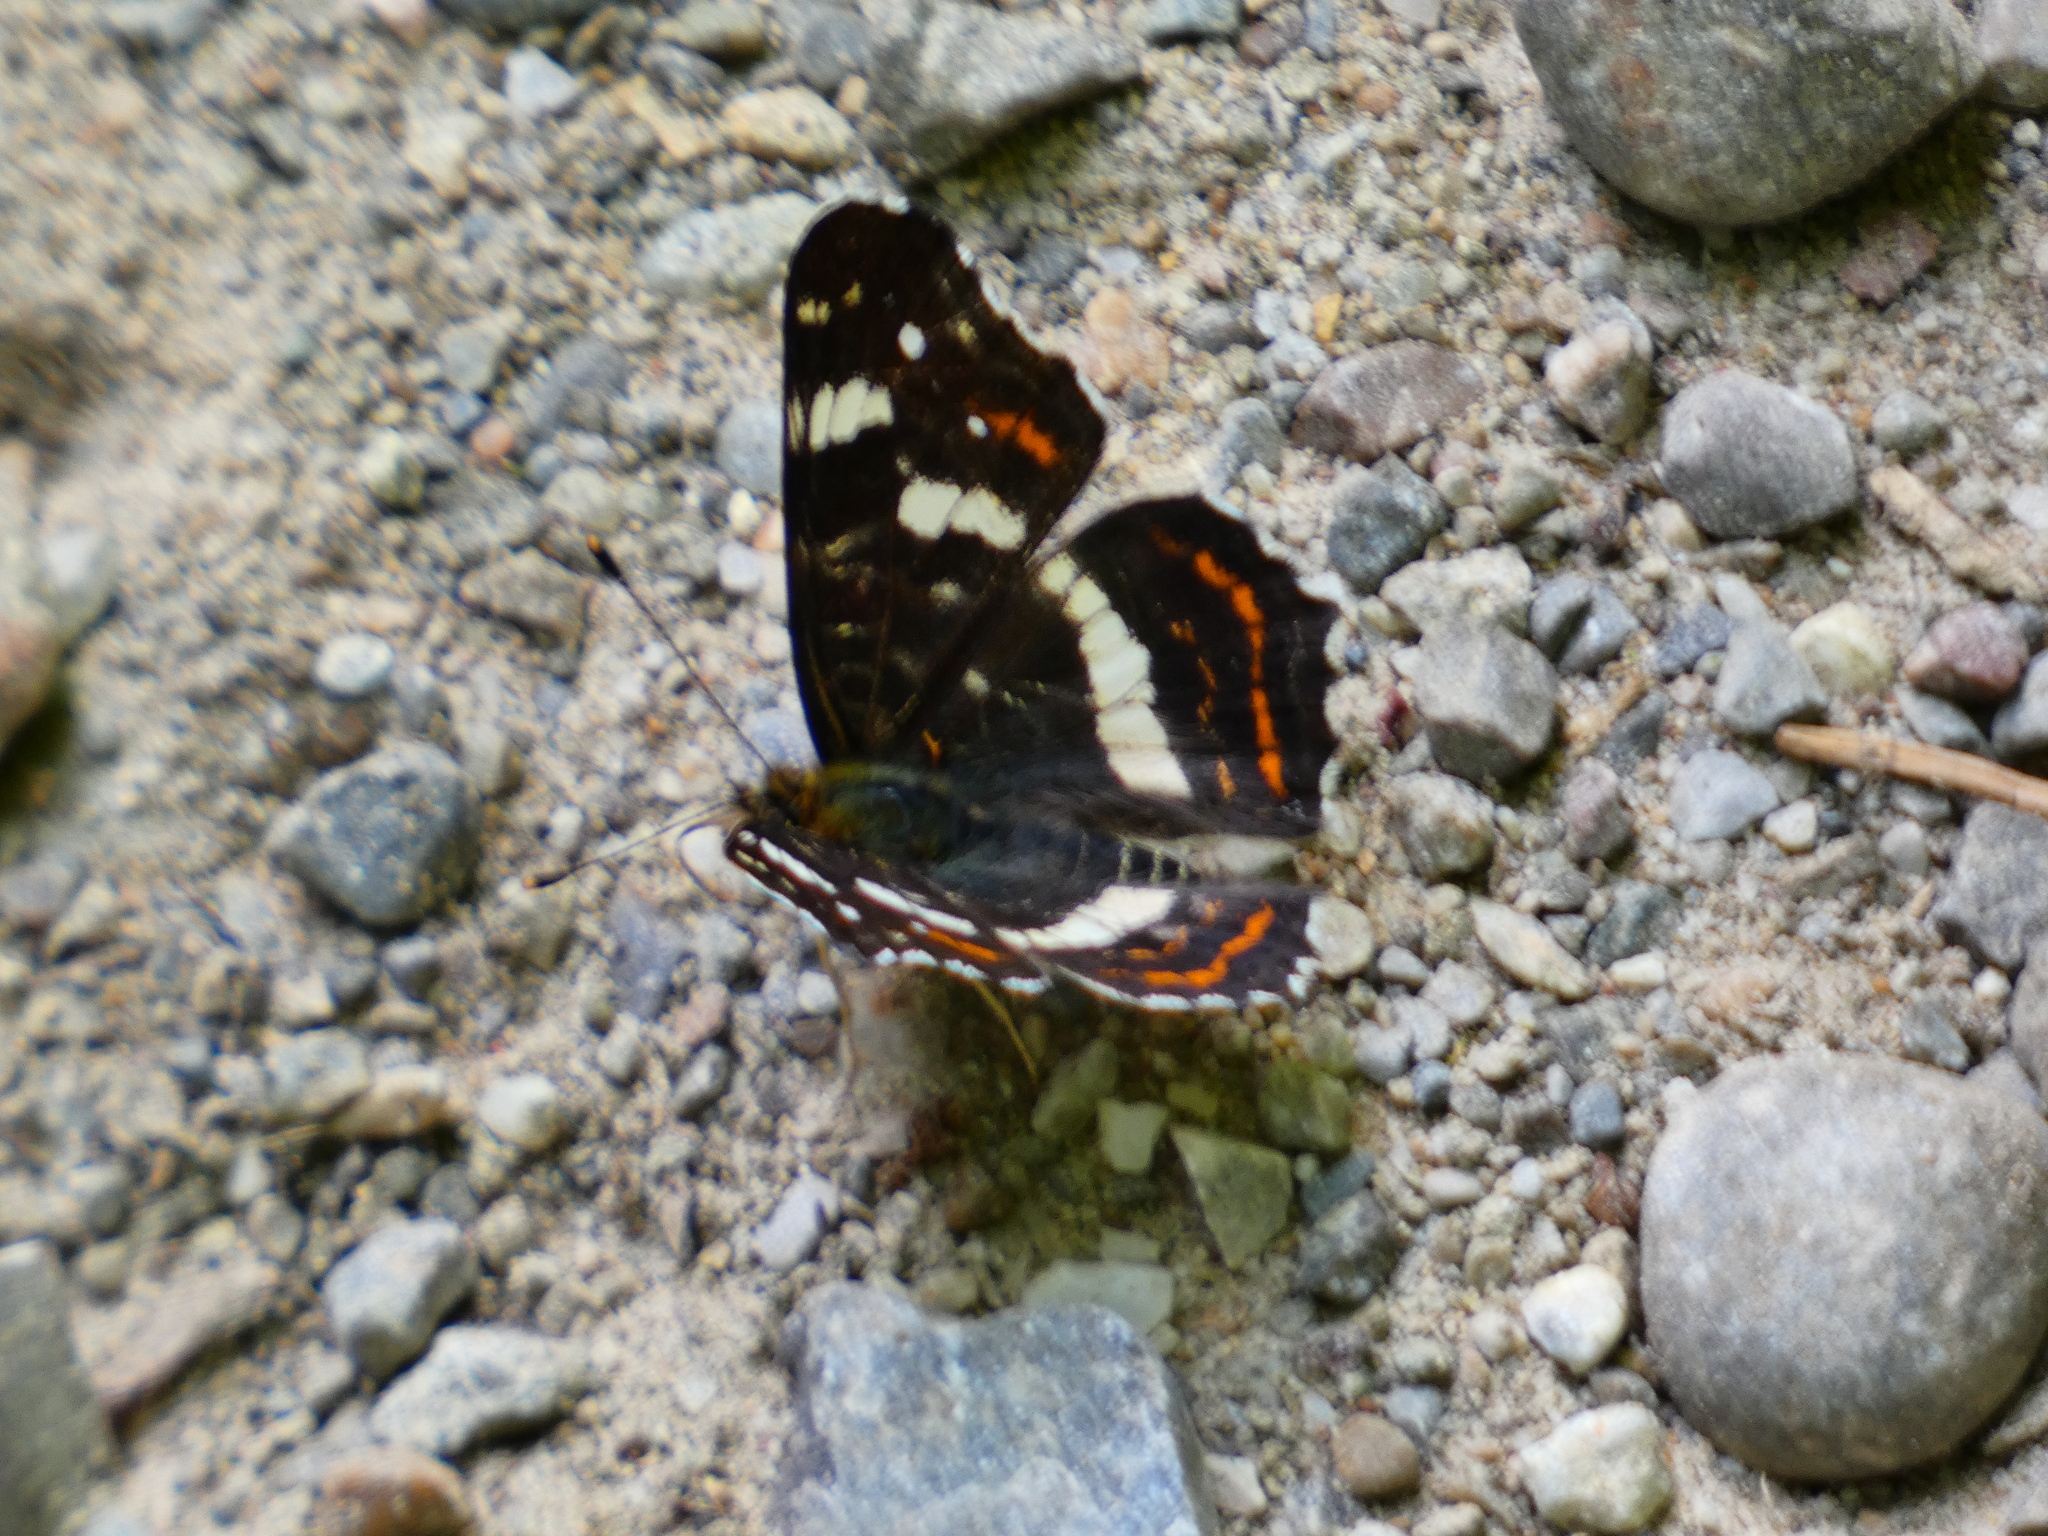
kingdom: Animalia
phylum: Arthropoda
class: Insecta
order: Lepidoptera
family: Nymphalidae
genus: Araschnia
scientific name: Araschnia levana
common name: Map butterfly
